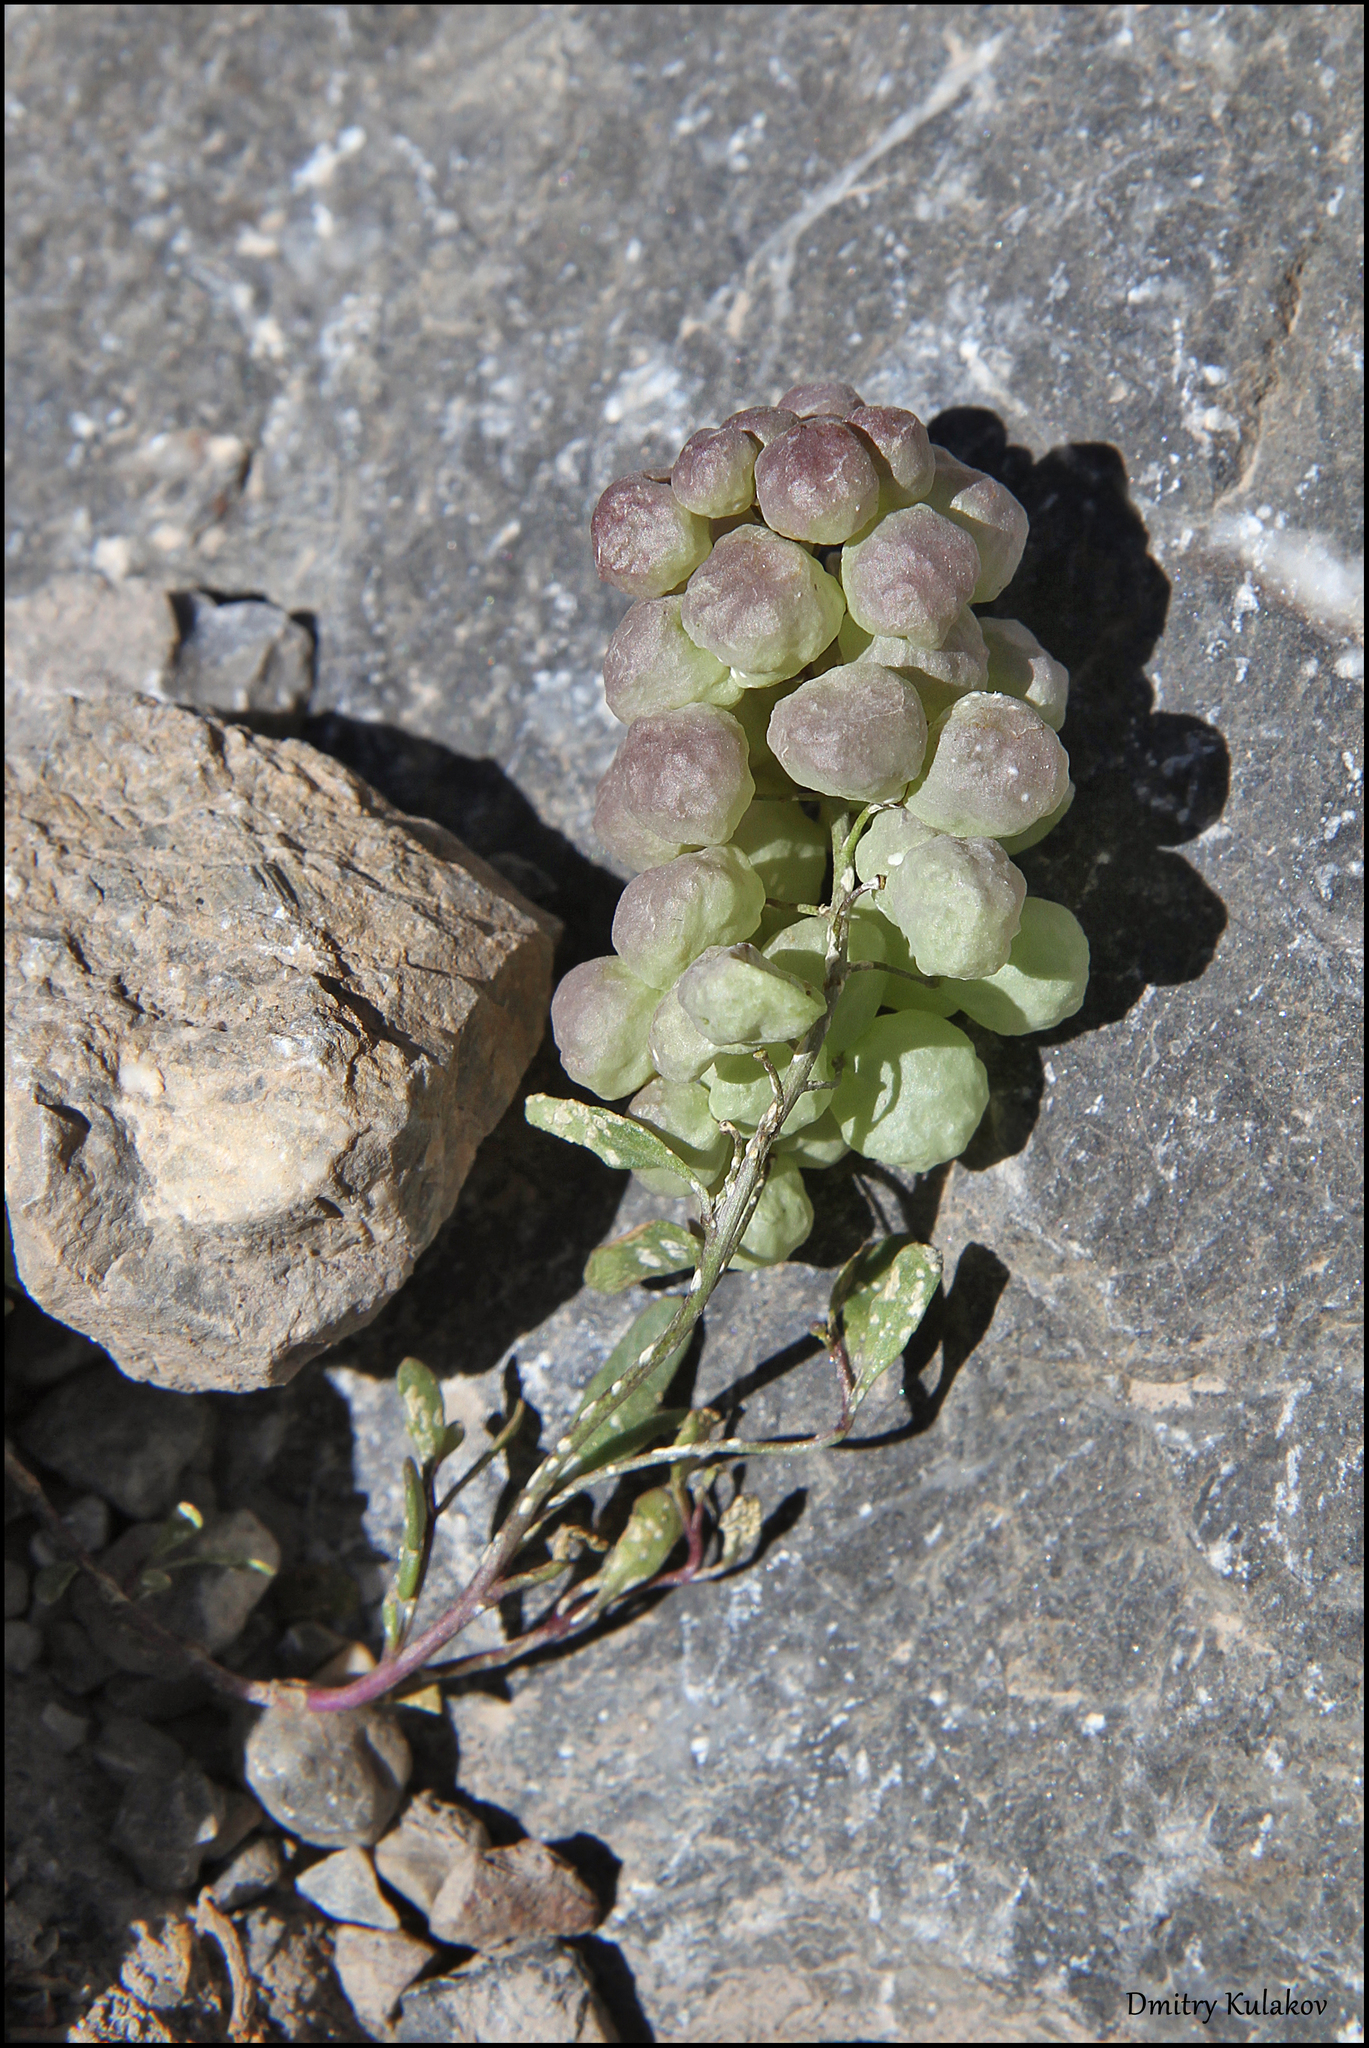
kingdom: Plantae
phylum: Tracheophyta
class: Magnoliopsida
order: Brassicales
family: Brassicaceae
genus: Didymophysa
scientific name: Didymophysa fedtschenkoana
